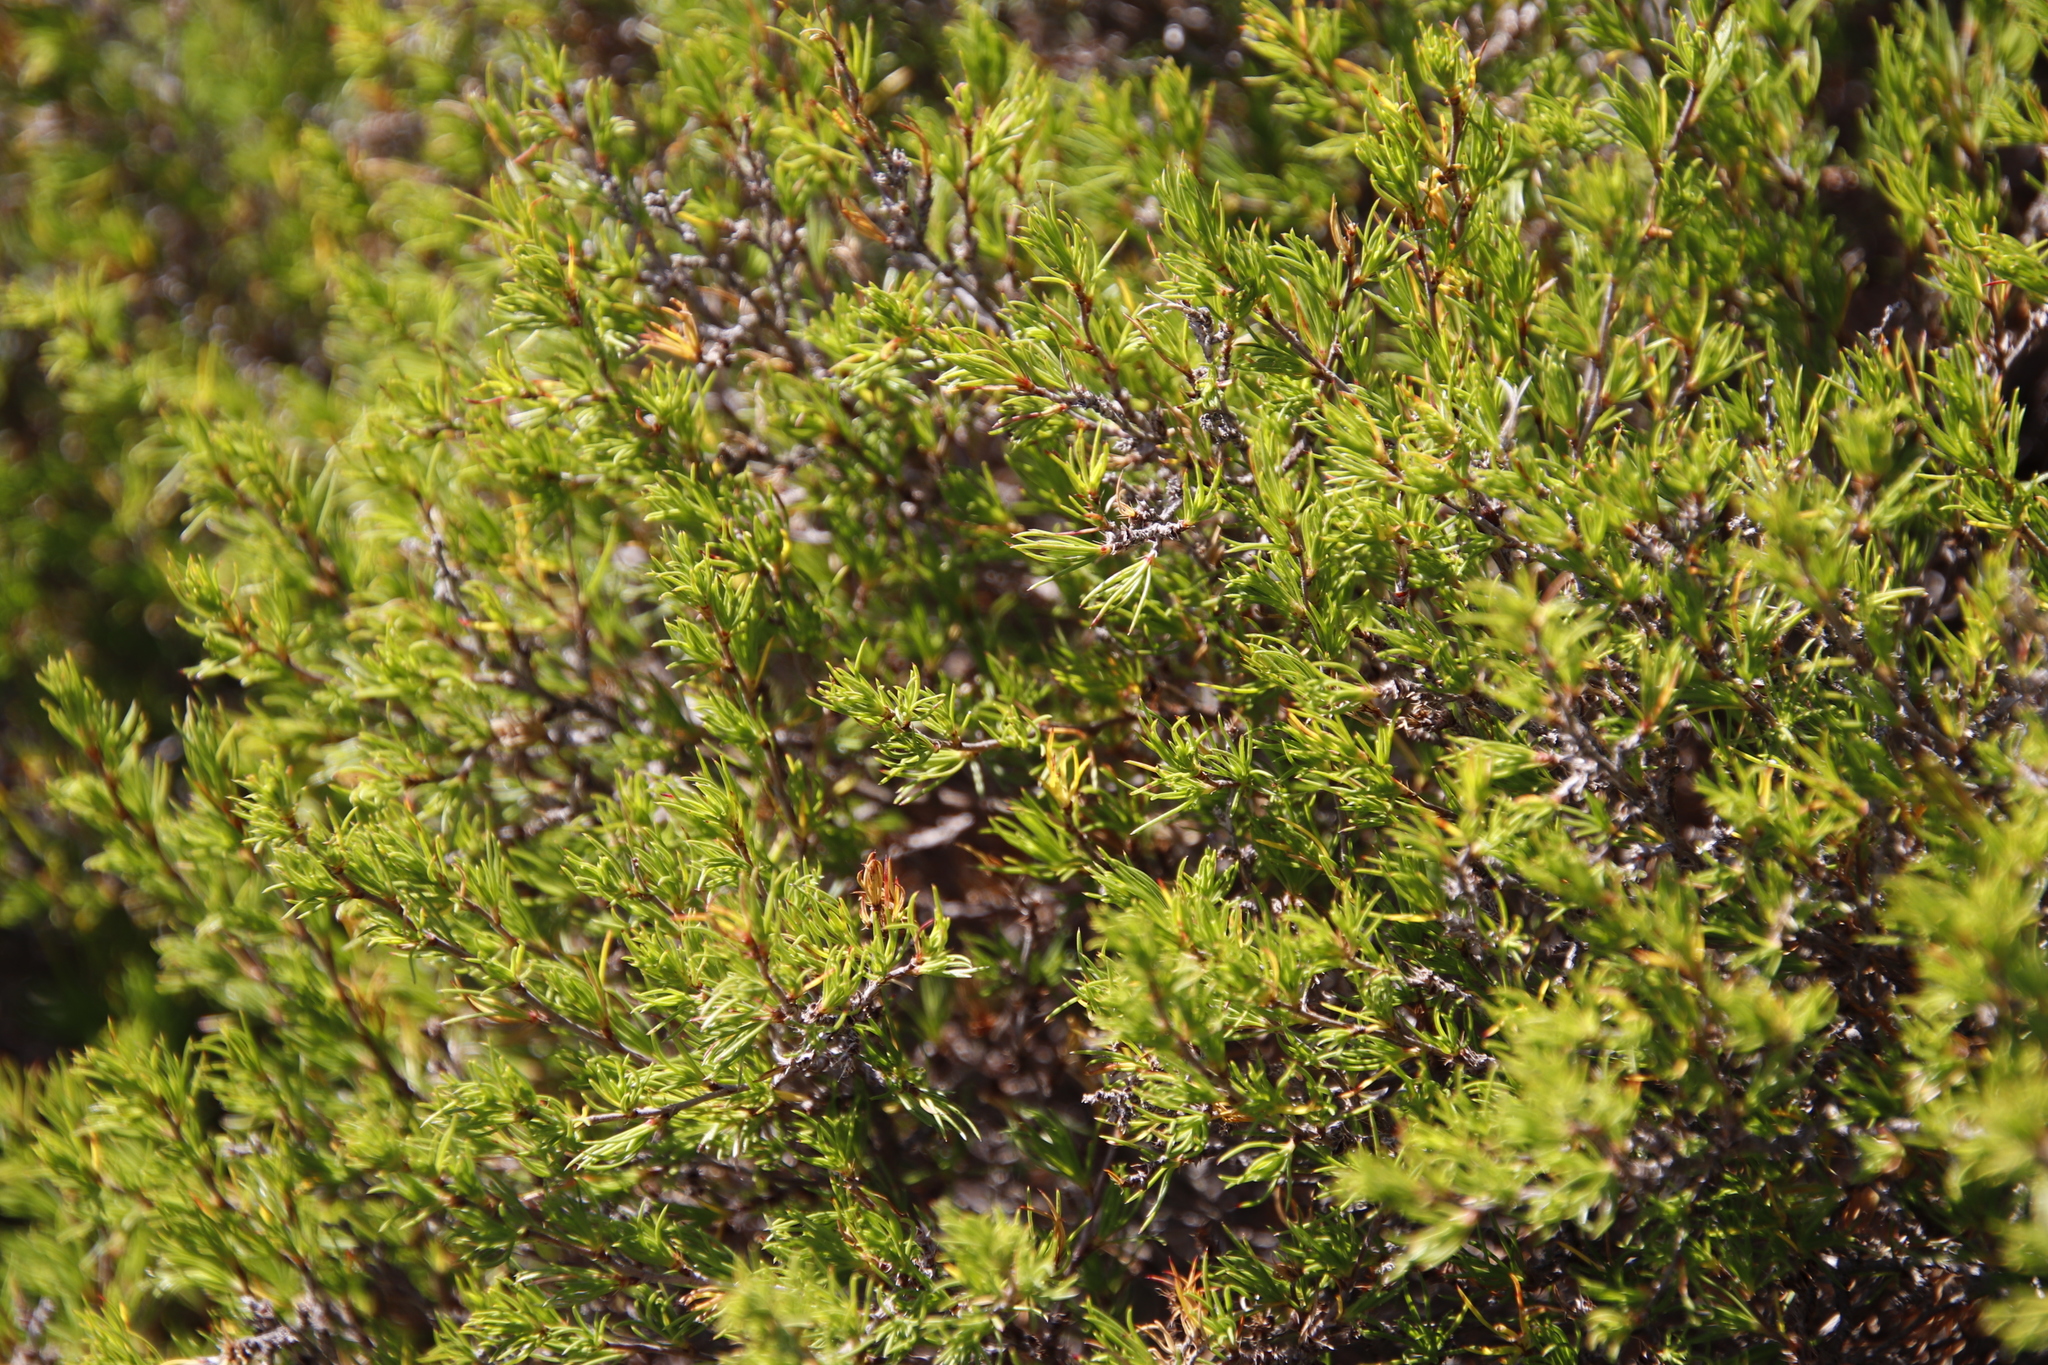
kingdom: Plantae
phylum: Tracheophyta
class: Magnoliopsida
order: Rosales
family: Rosaceae
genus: Cliffortia
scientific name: Cliffortia atrata
